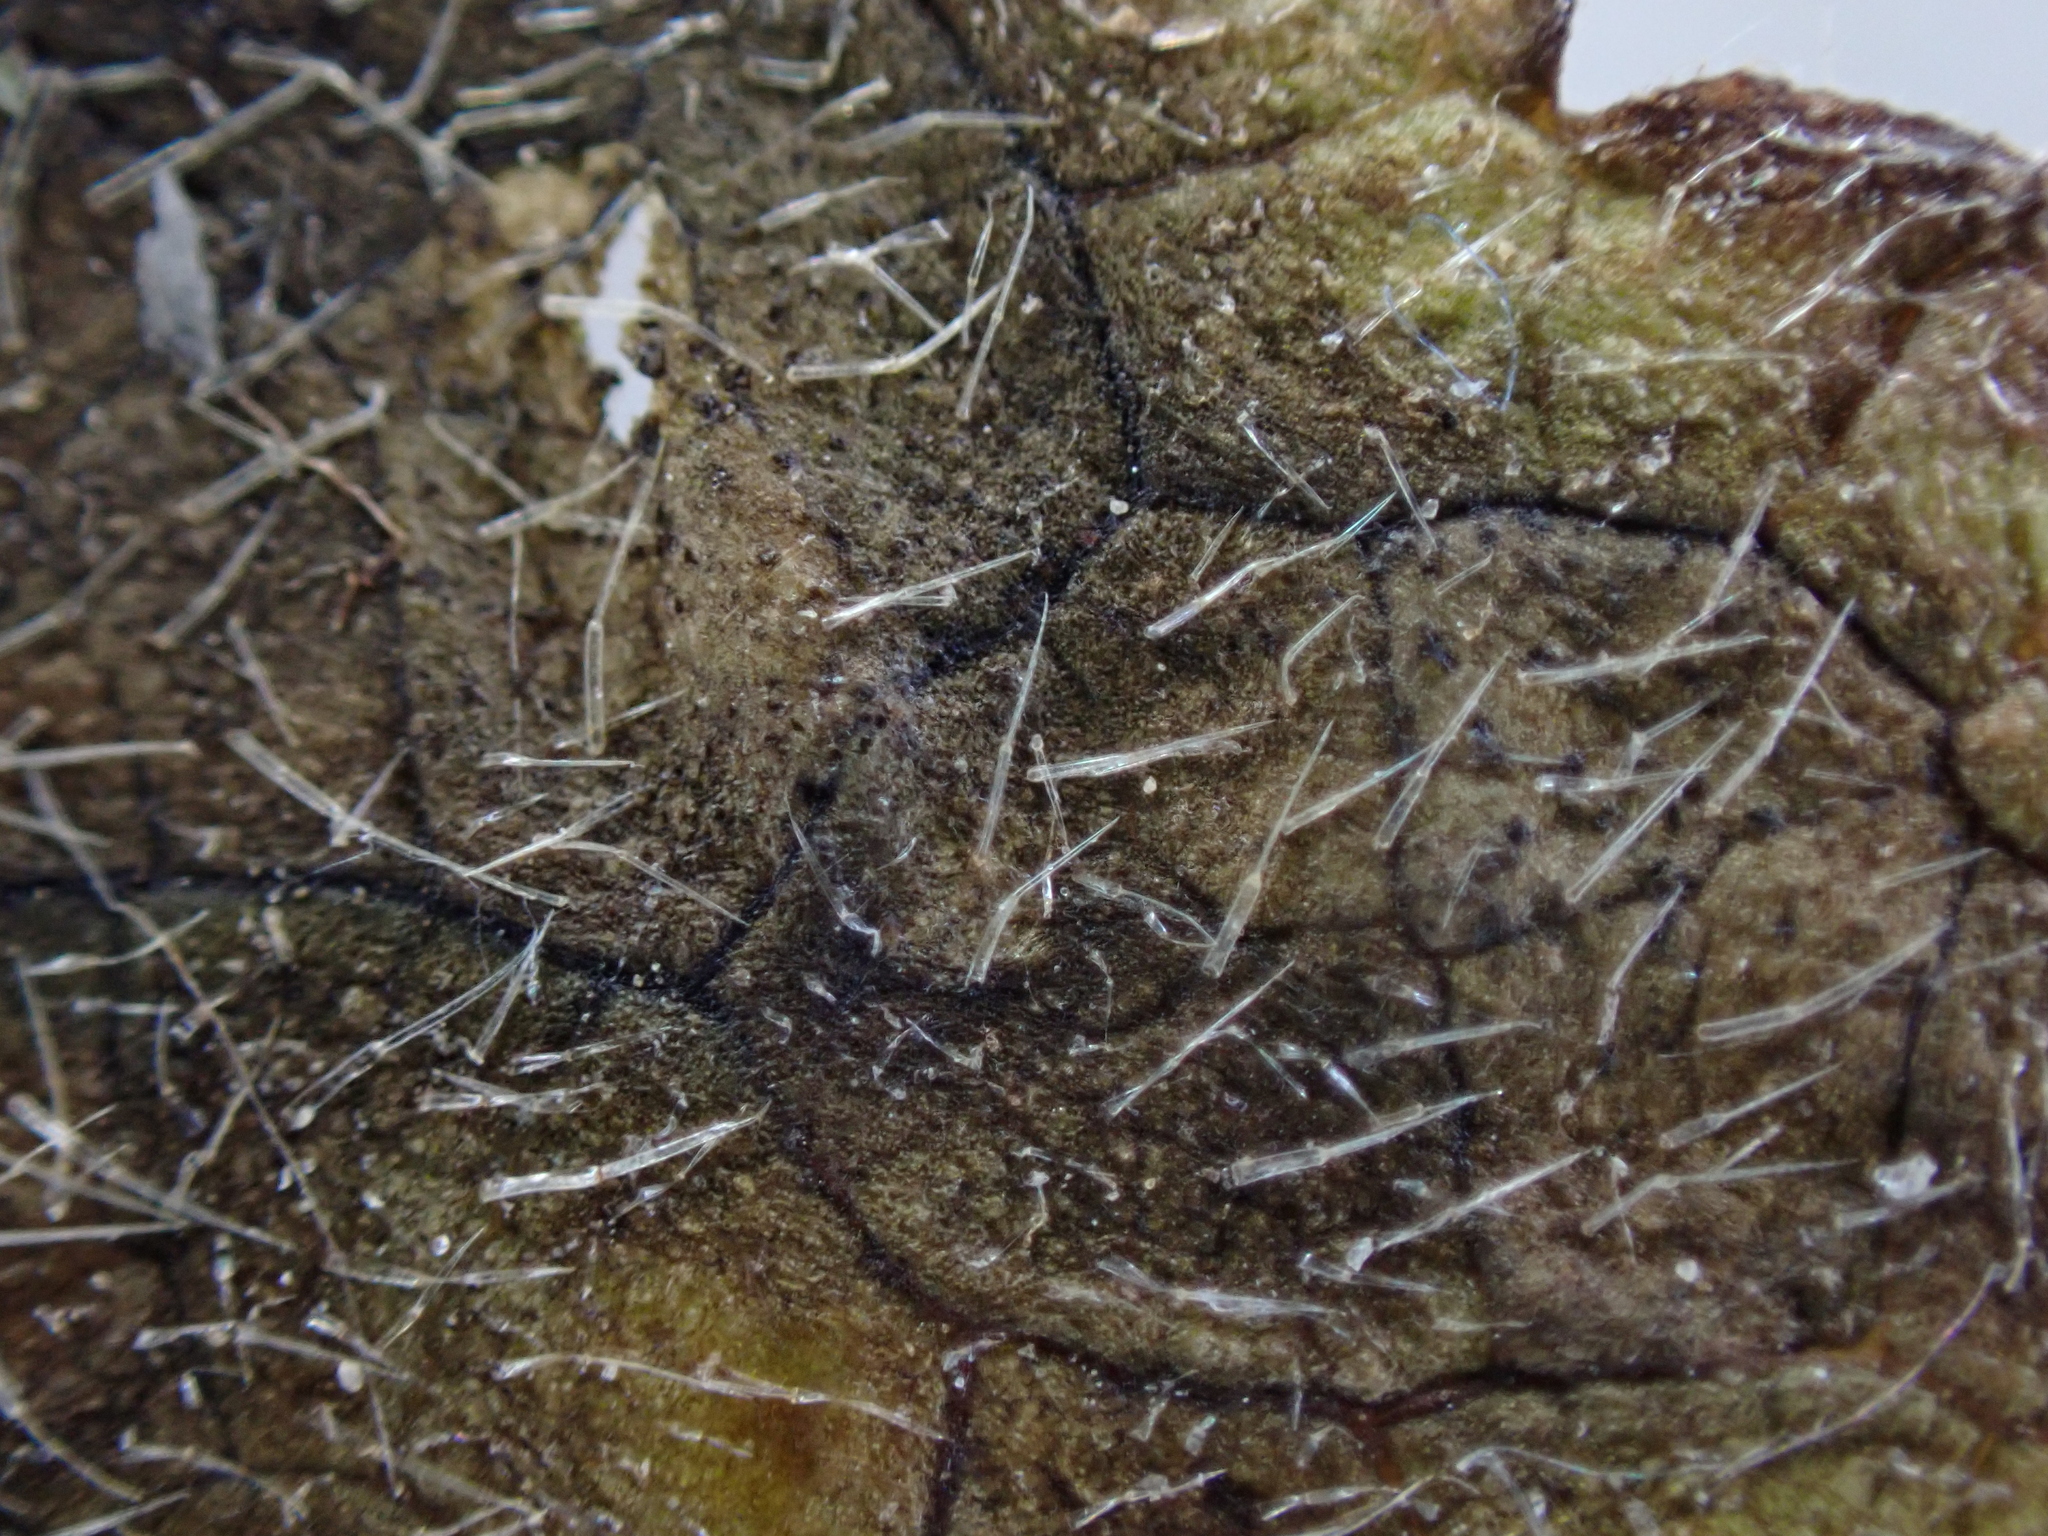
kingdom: Fungi
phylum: Ascomycota
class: Dothideomycetes
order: Mycosphaerellales
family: Mycosphaerellaceae
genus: Septoria
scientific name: Septoria stachydis
